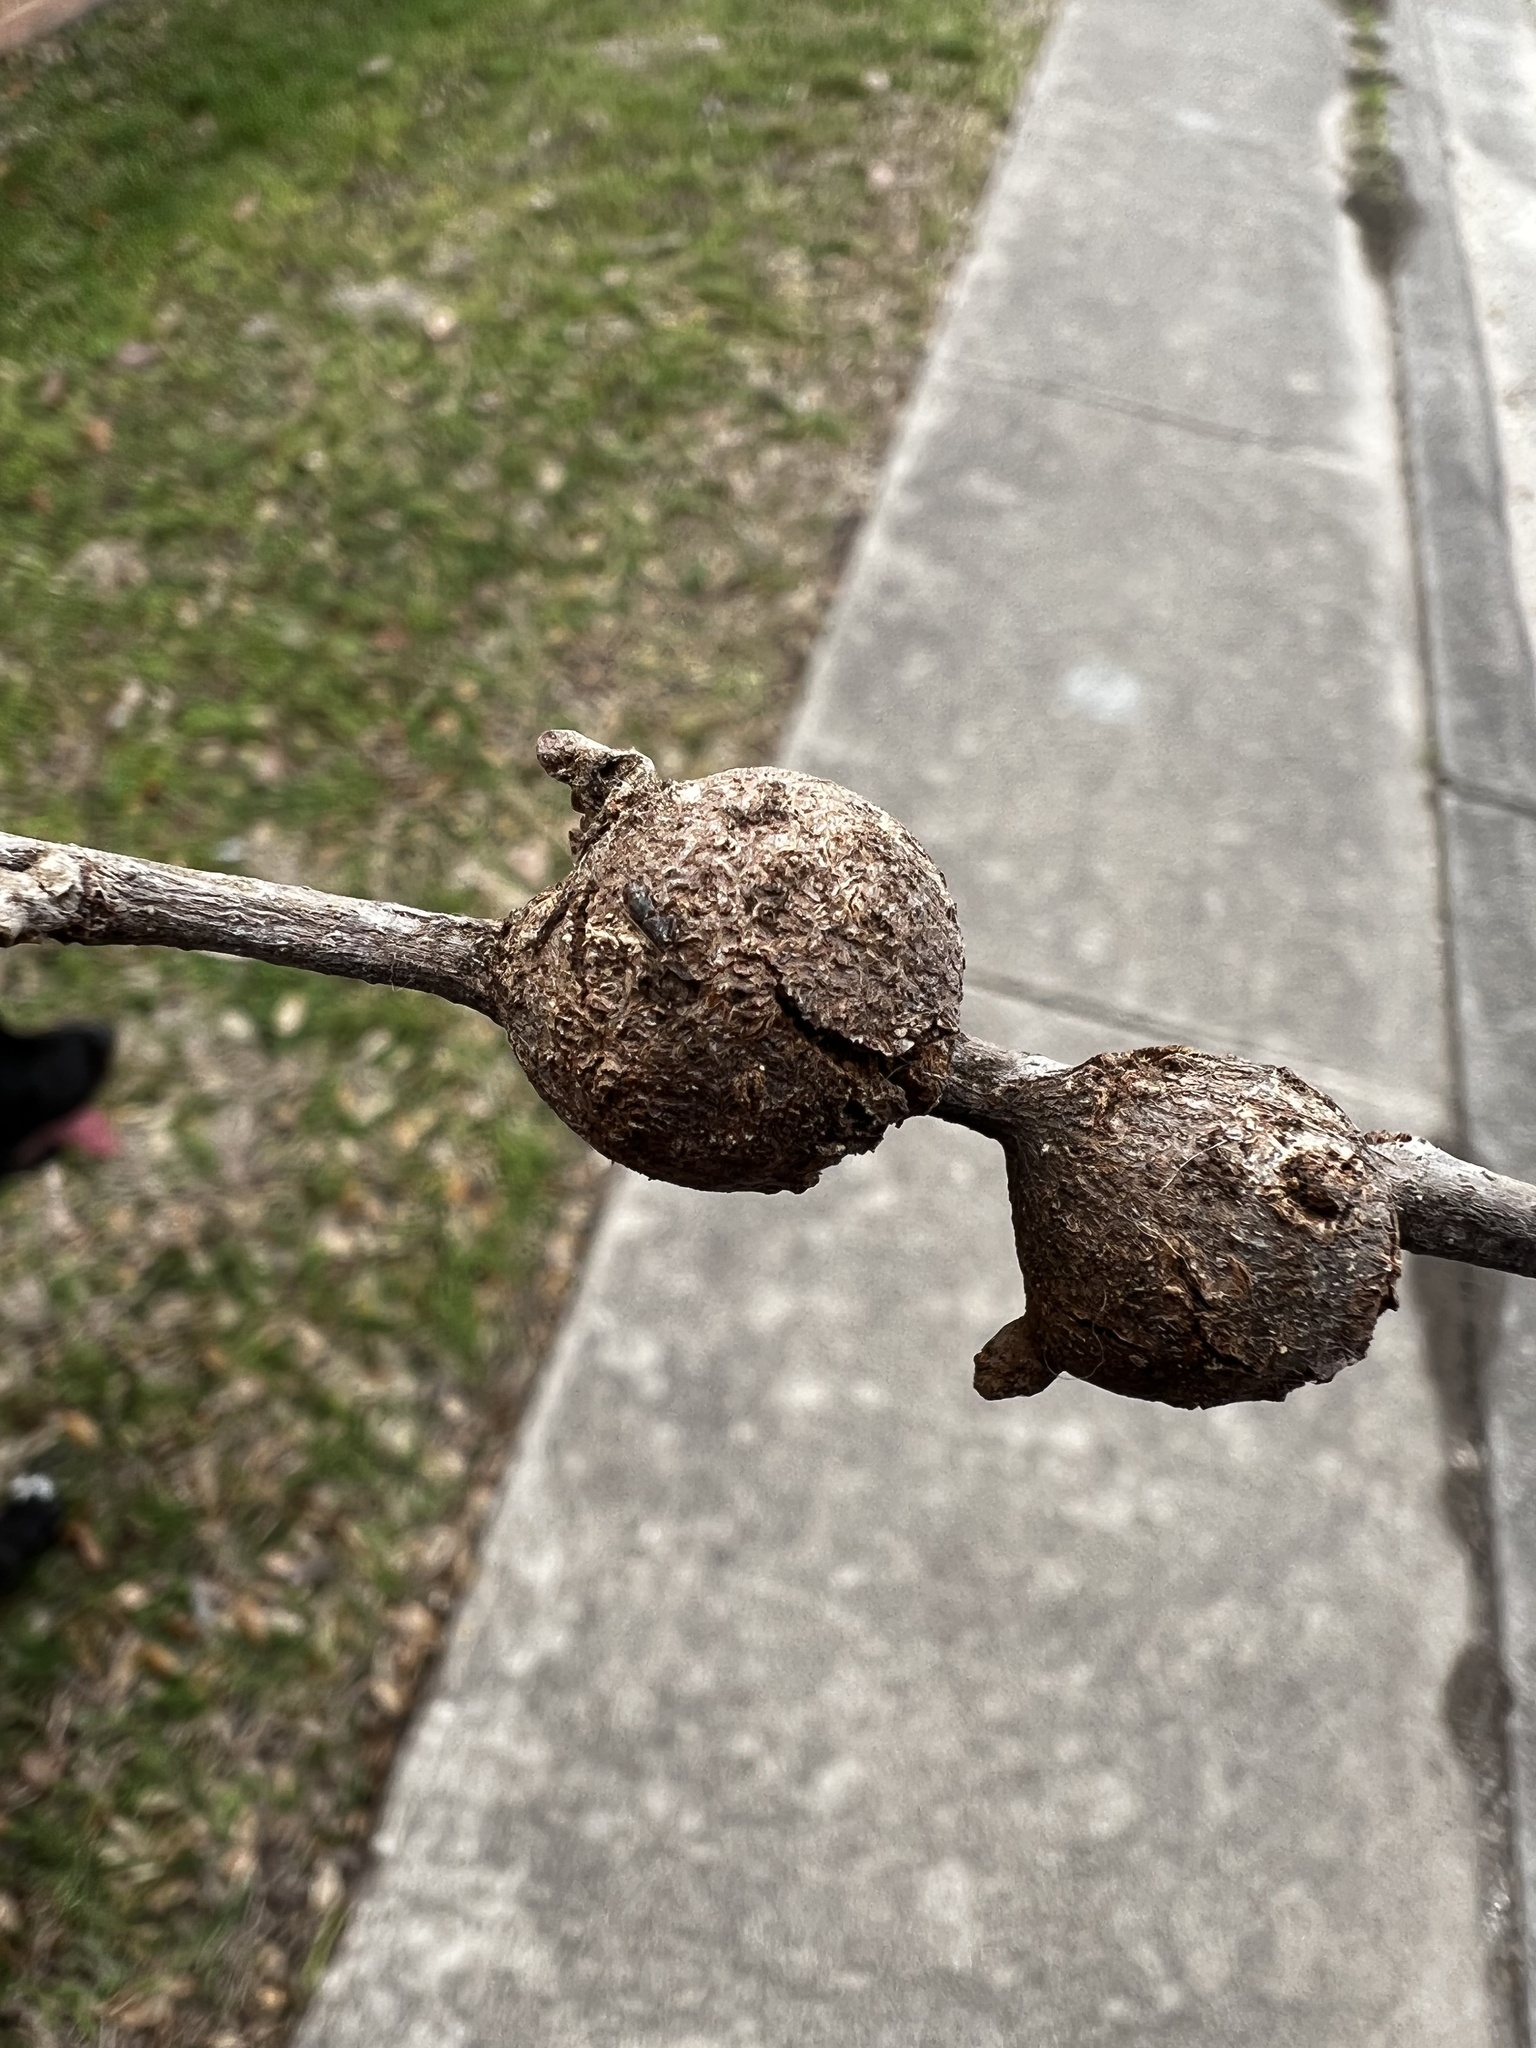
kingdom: Animalia
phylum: Arthropoda
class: Insecta
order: Hymenoptera
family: Cynipidae
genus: Callirhytis
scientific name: Callirhytis
